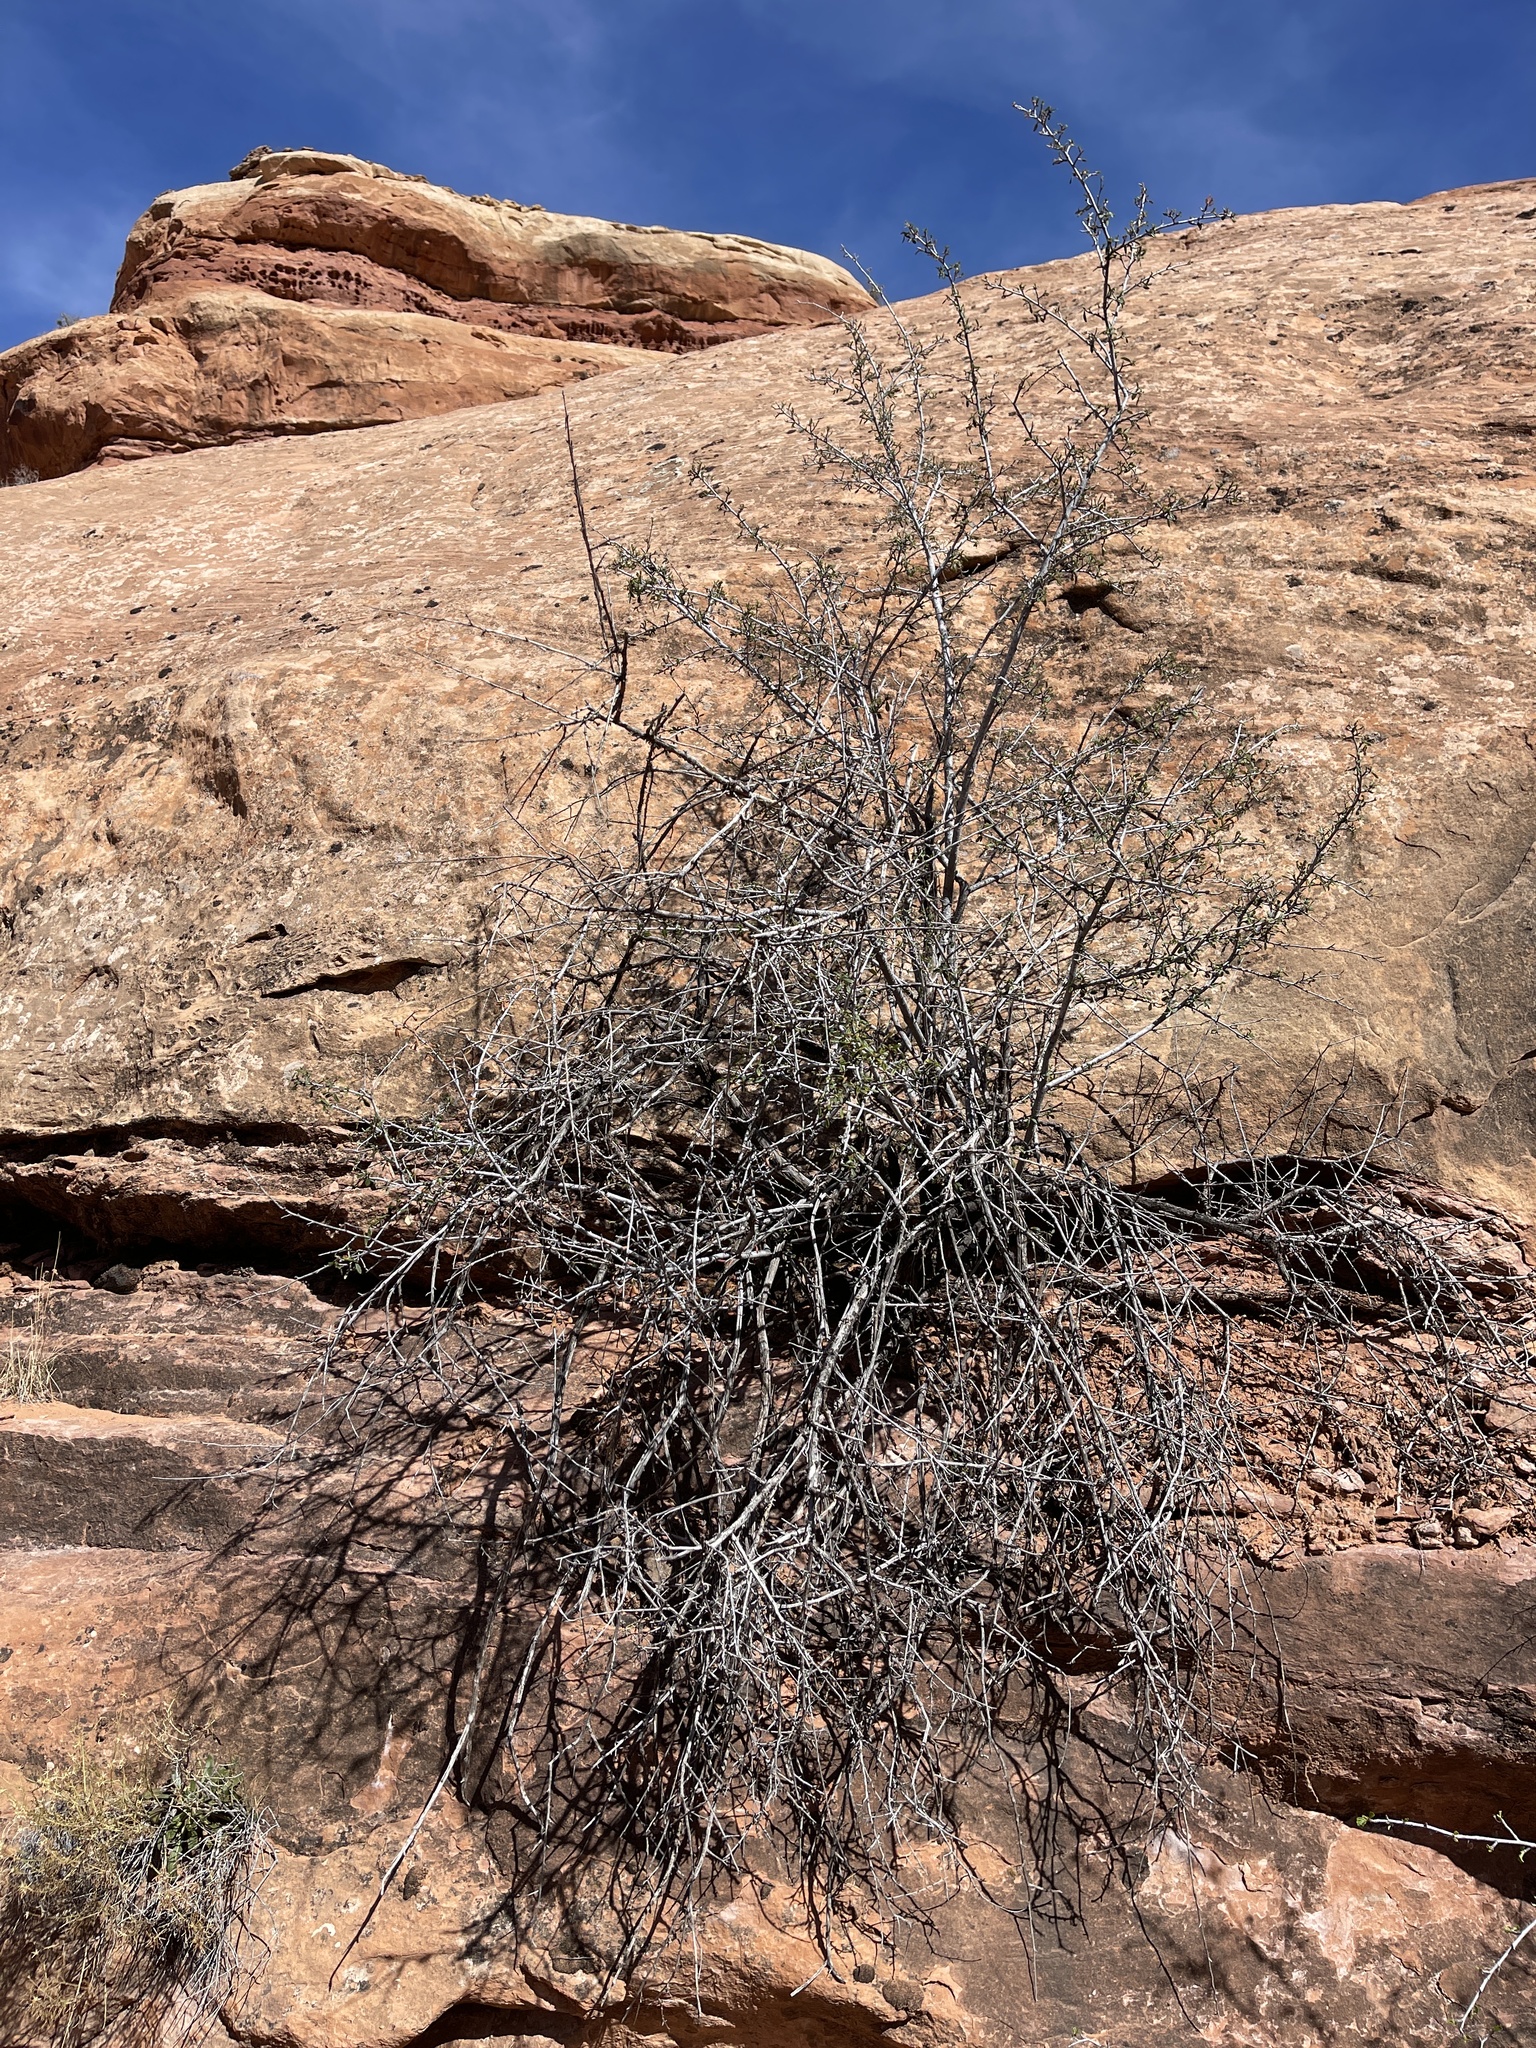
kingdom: Plantae
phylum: Tracheophyta
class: Magnoliopsida
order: Rosales
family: Rosaceae
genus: Cercocarpus
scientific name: Cercocarpus ledifolius
